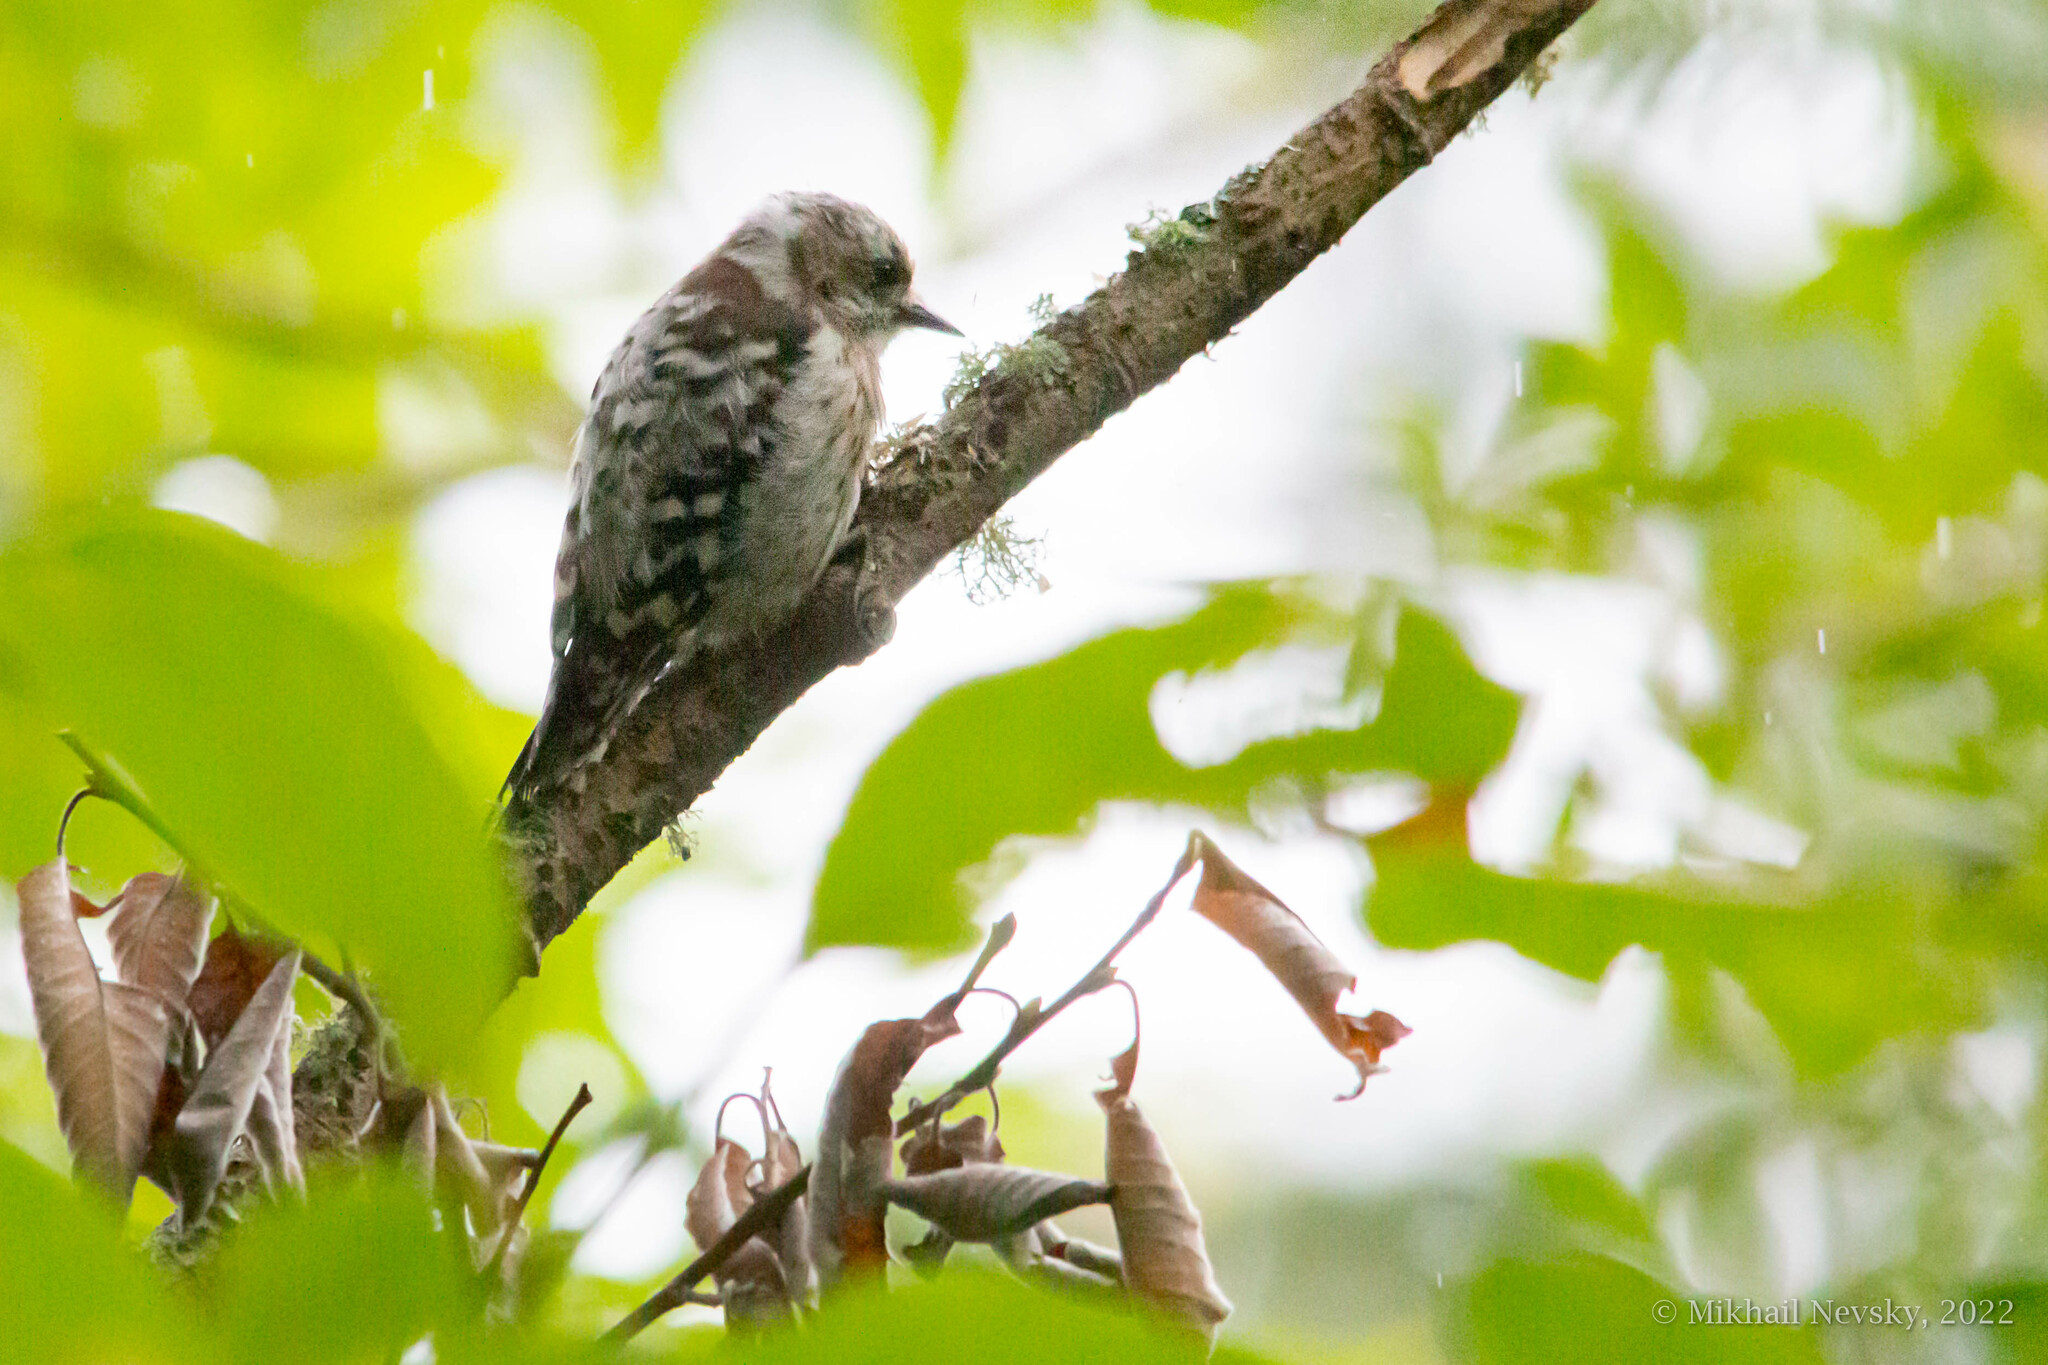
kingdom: Animalia
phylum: Chordata
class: Aves
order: Piciformes
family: Picidae
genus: Yungipicus
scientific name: Yungipicus kizuki
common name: Japanese pygmy woodpecker
